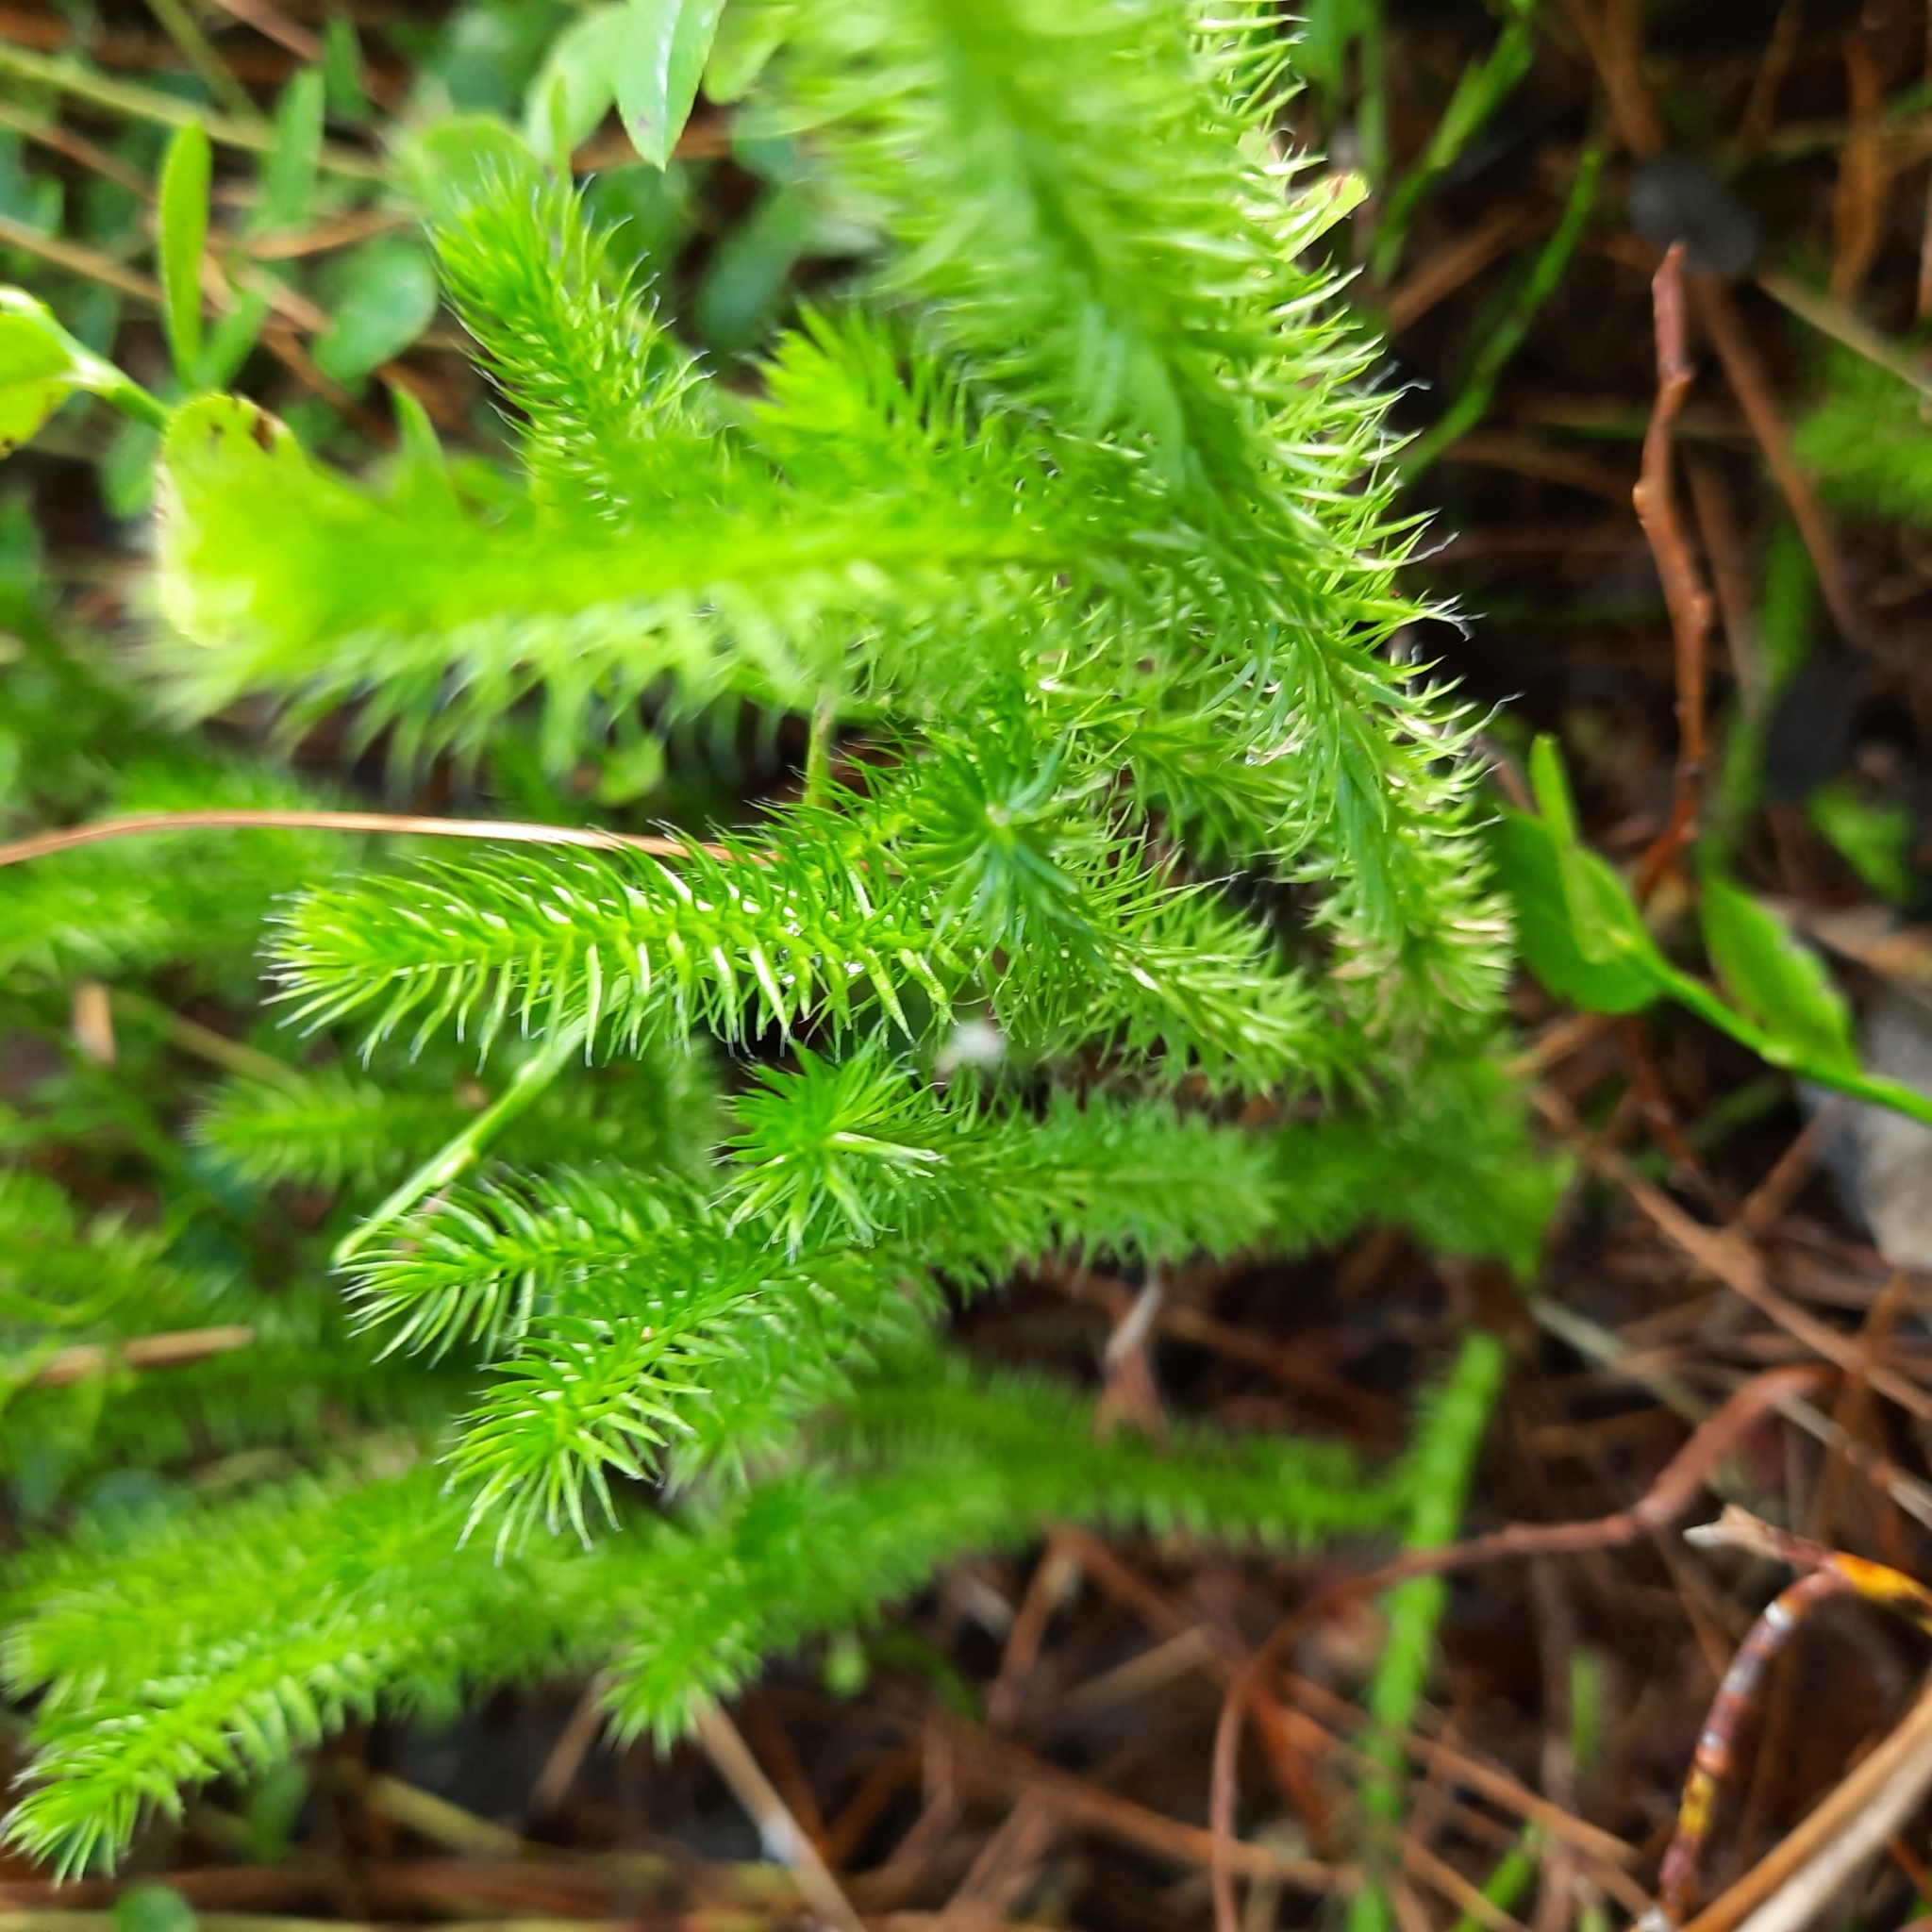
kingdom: Plantae
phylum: Tracheophyta
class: Lycopodiopsida
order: Lycopodiales
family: Lycopodiaceae
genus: Lycopodium
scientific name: Lycopodium clavatum
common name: Stag's-horn clubmoss
